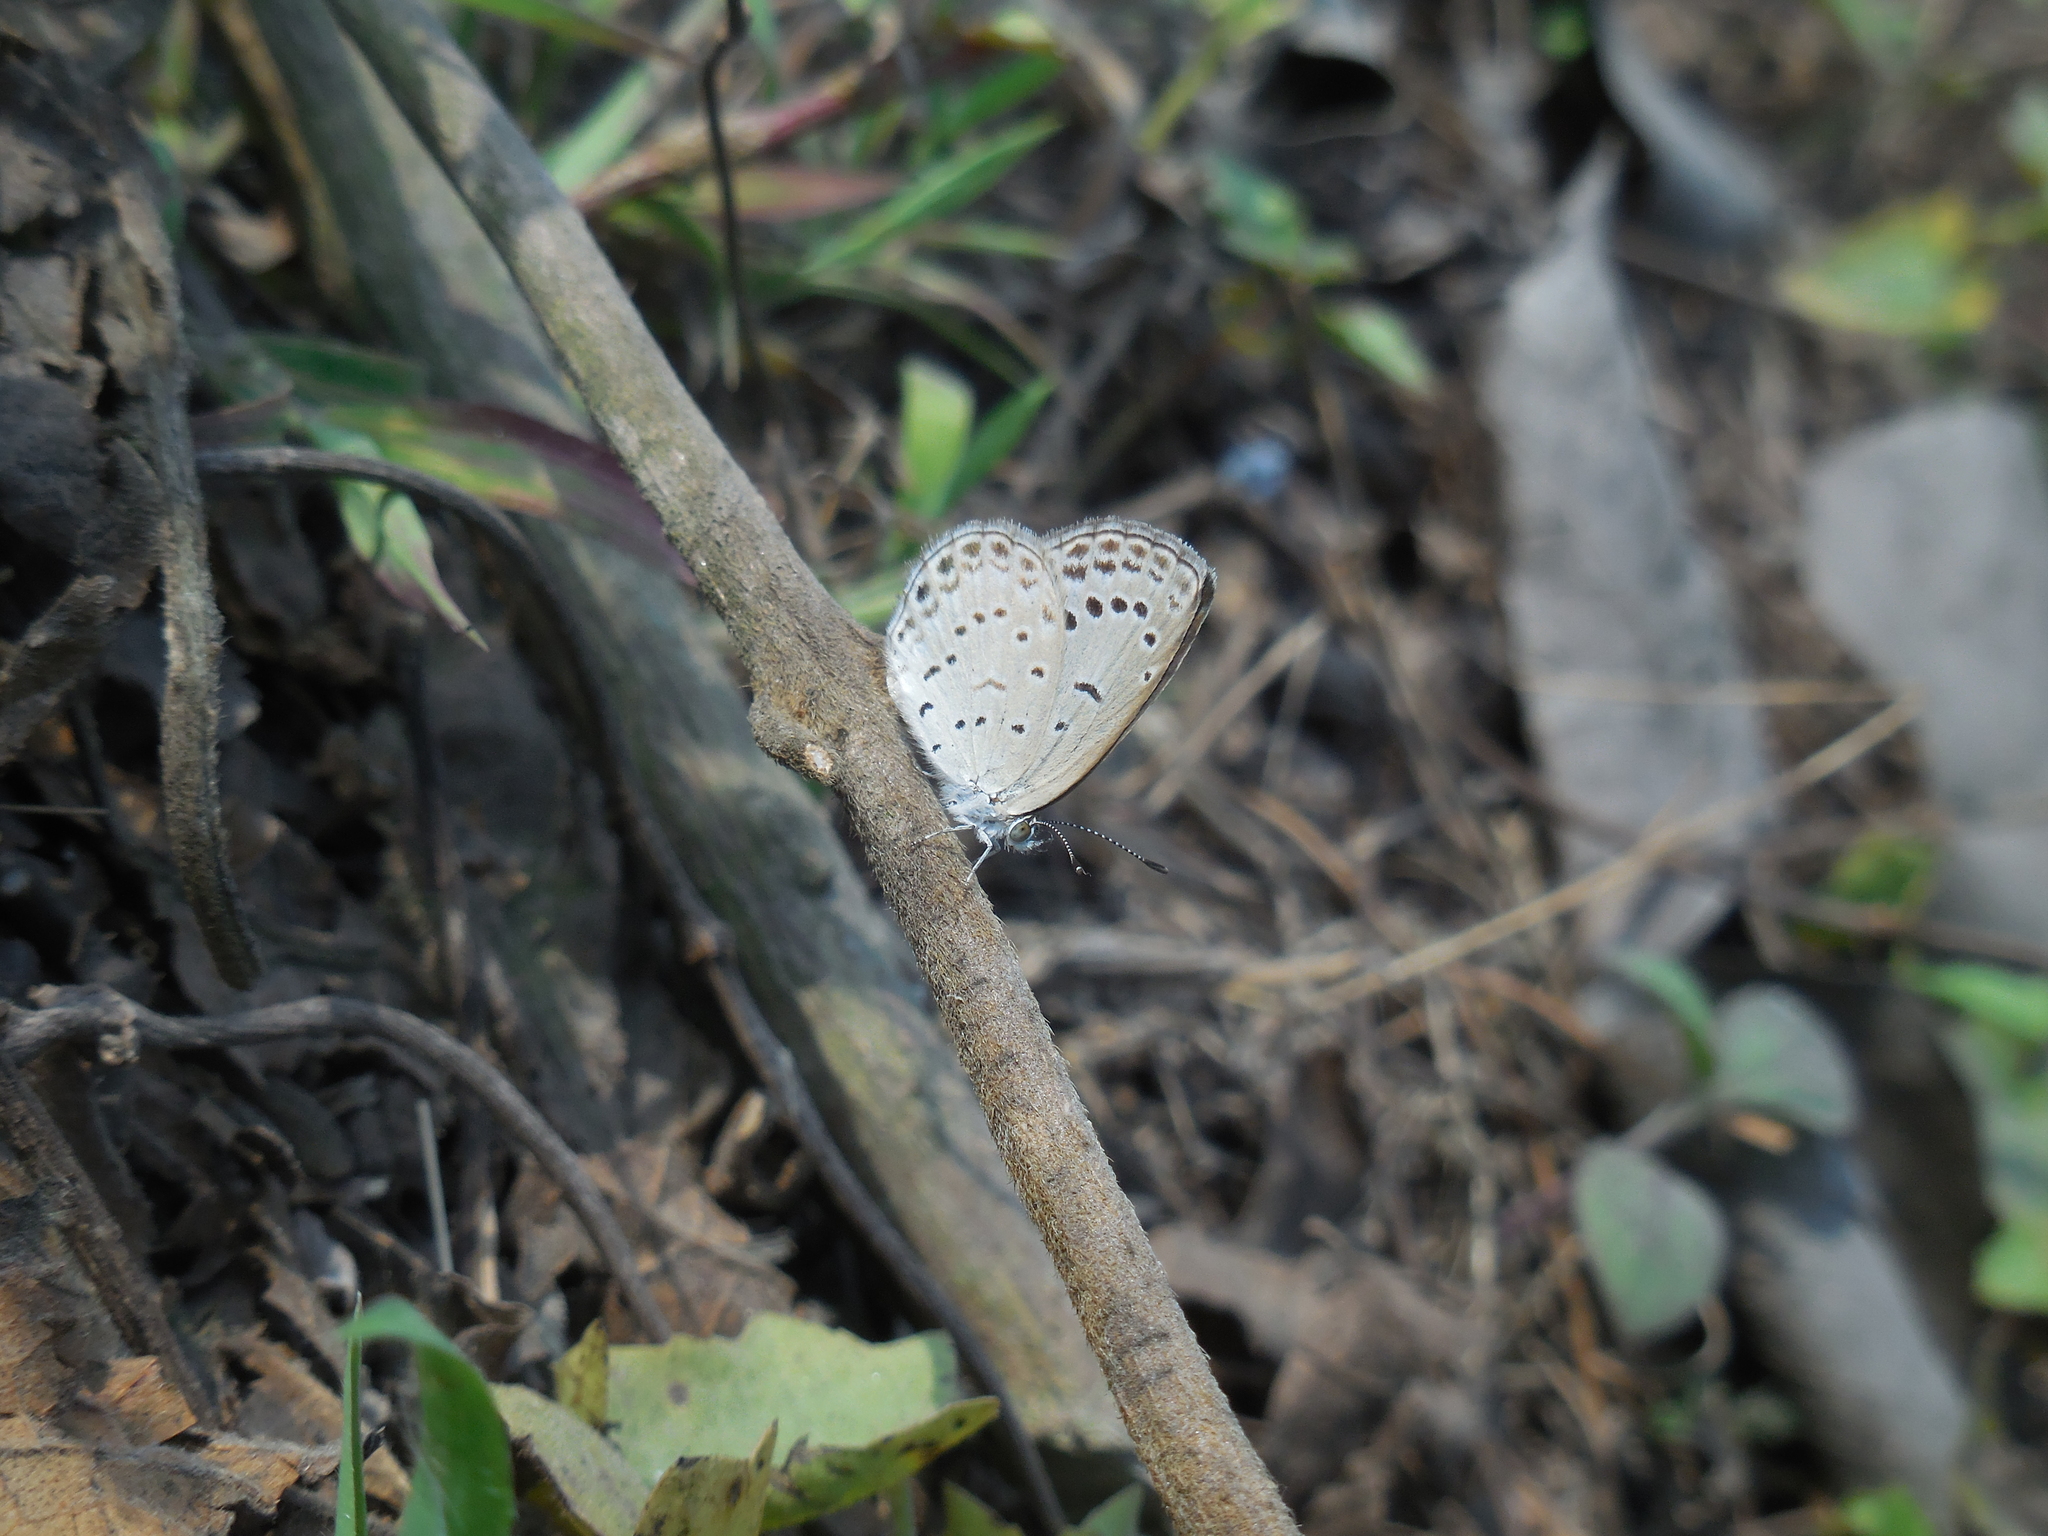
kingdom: Animalia
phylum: Arthropoda
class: Insecta
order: Lepidoptera
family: Lycaenidae
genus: Pseudozizeeria
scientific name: Pseudozizeeria maha
